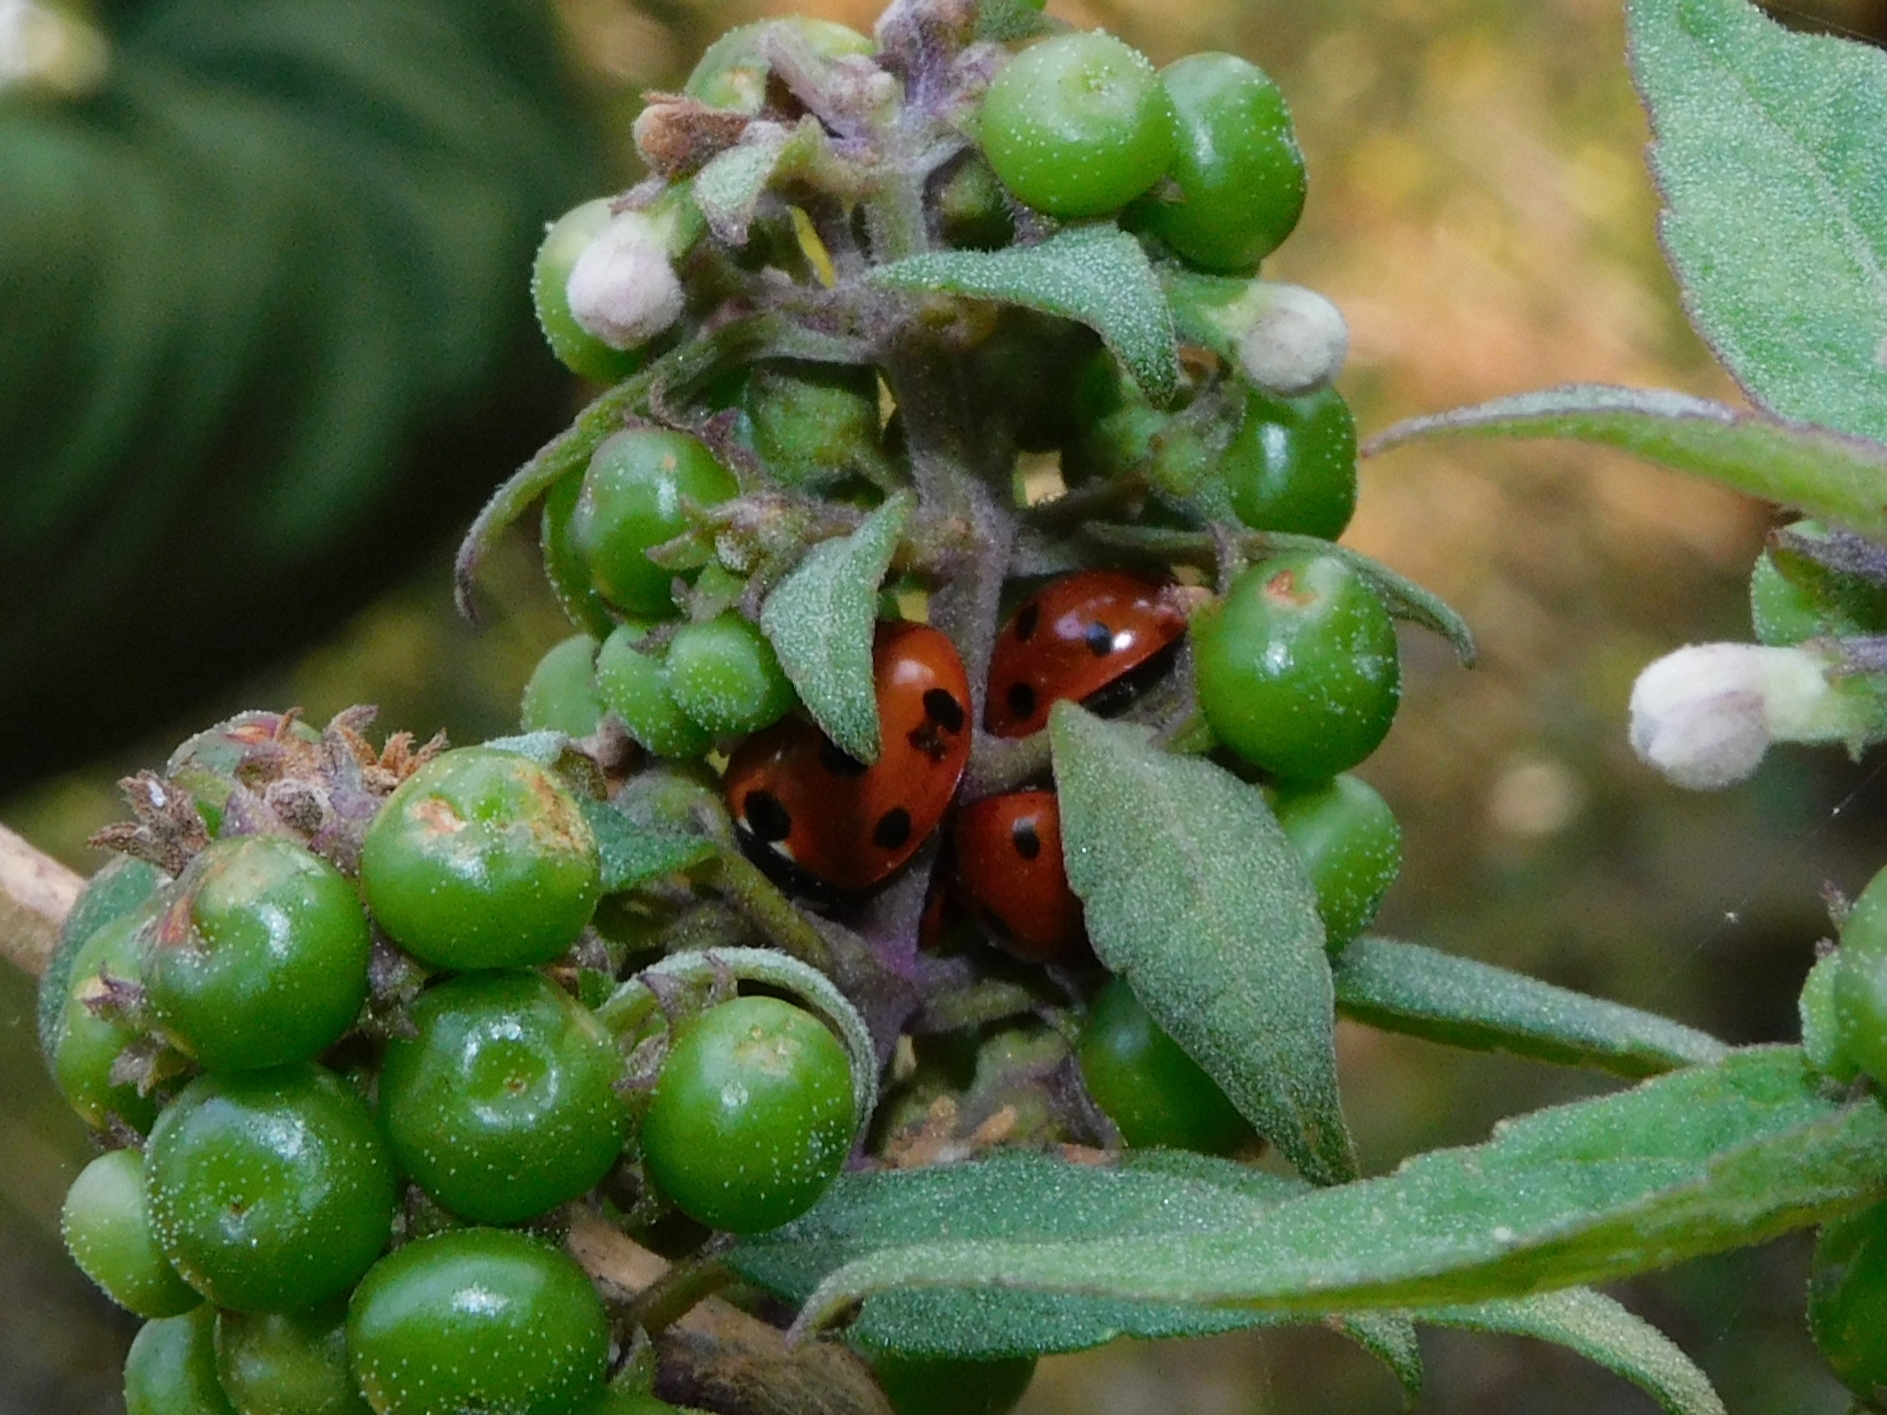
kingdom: Animalia
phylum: Arthropoda
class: Insecta
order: Coleoptera
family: Coccinellidae
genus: Coccinella
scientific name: Coccinella septempunctata
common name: Sevenspotted lady beetle
